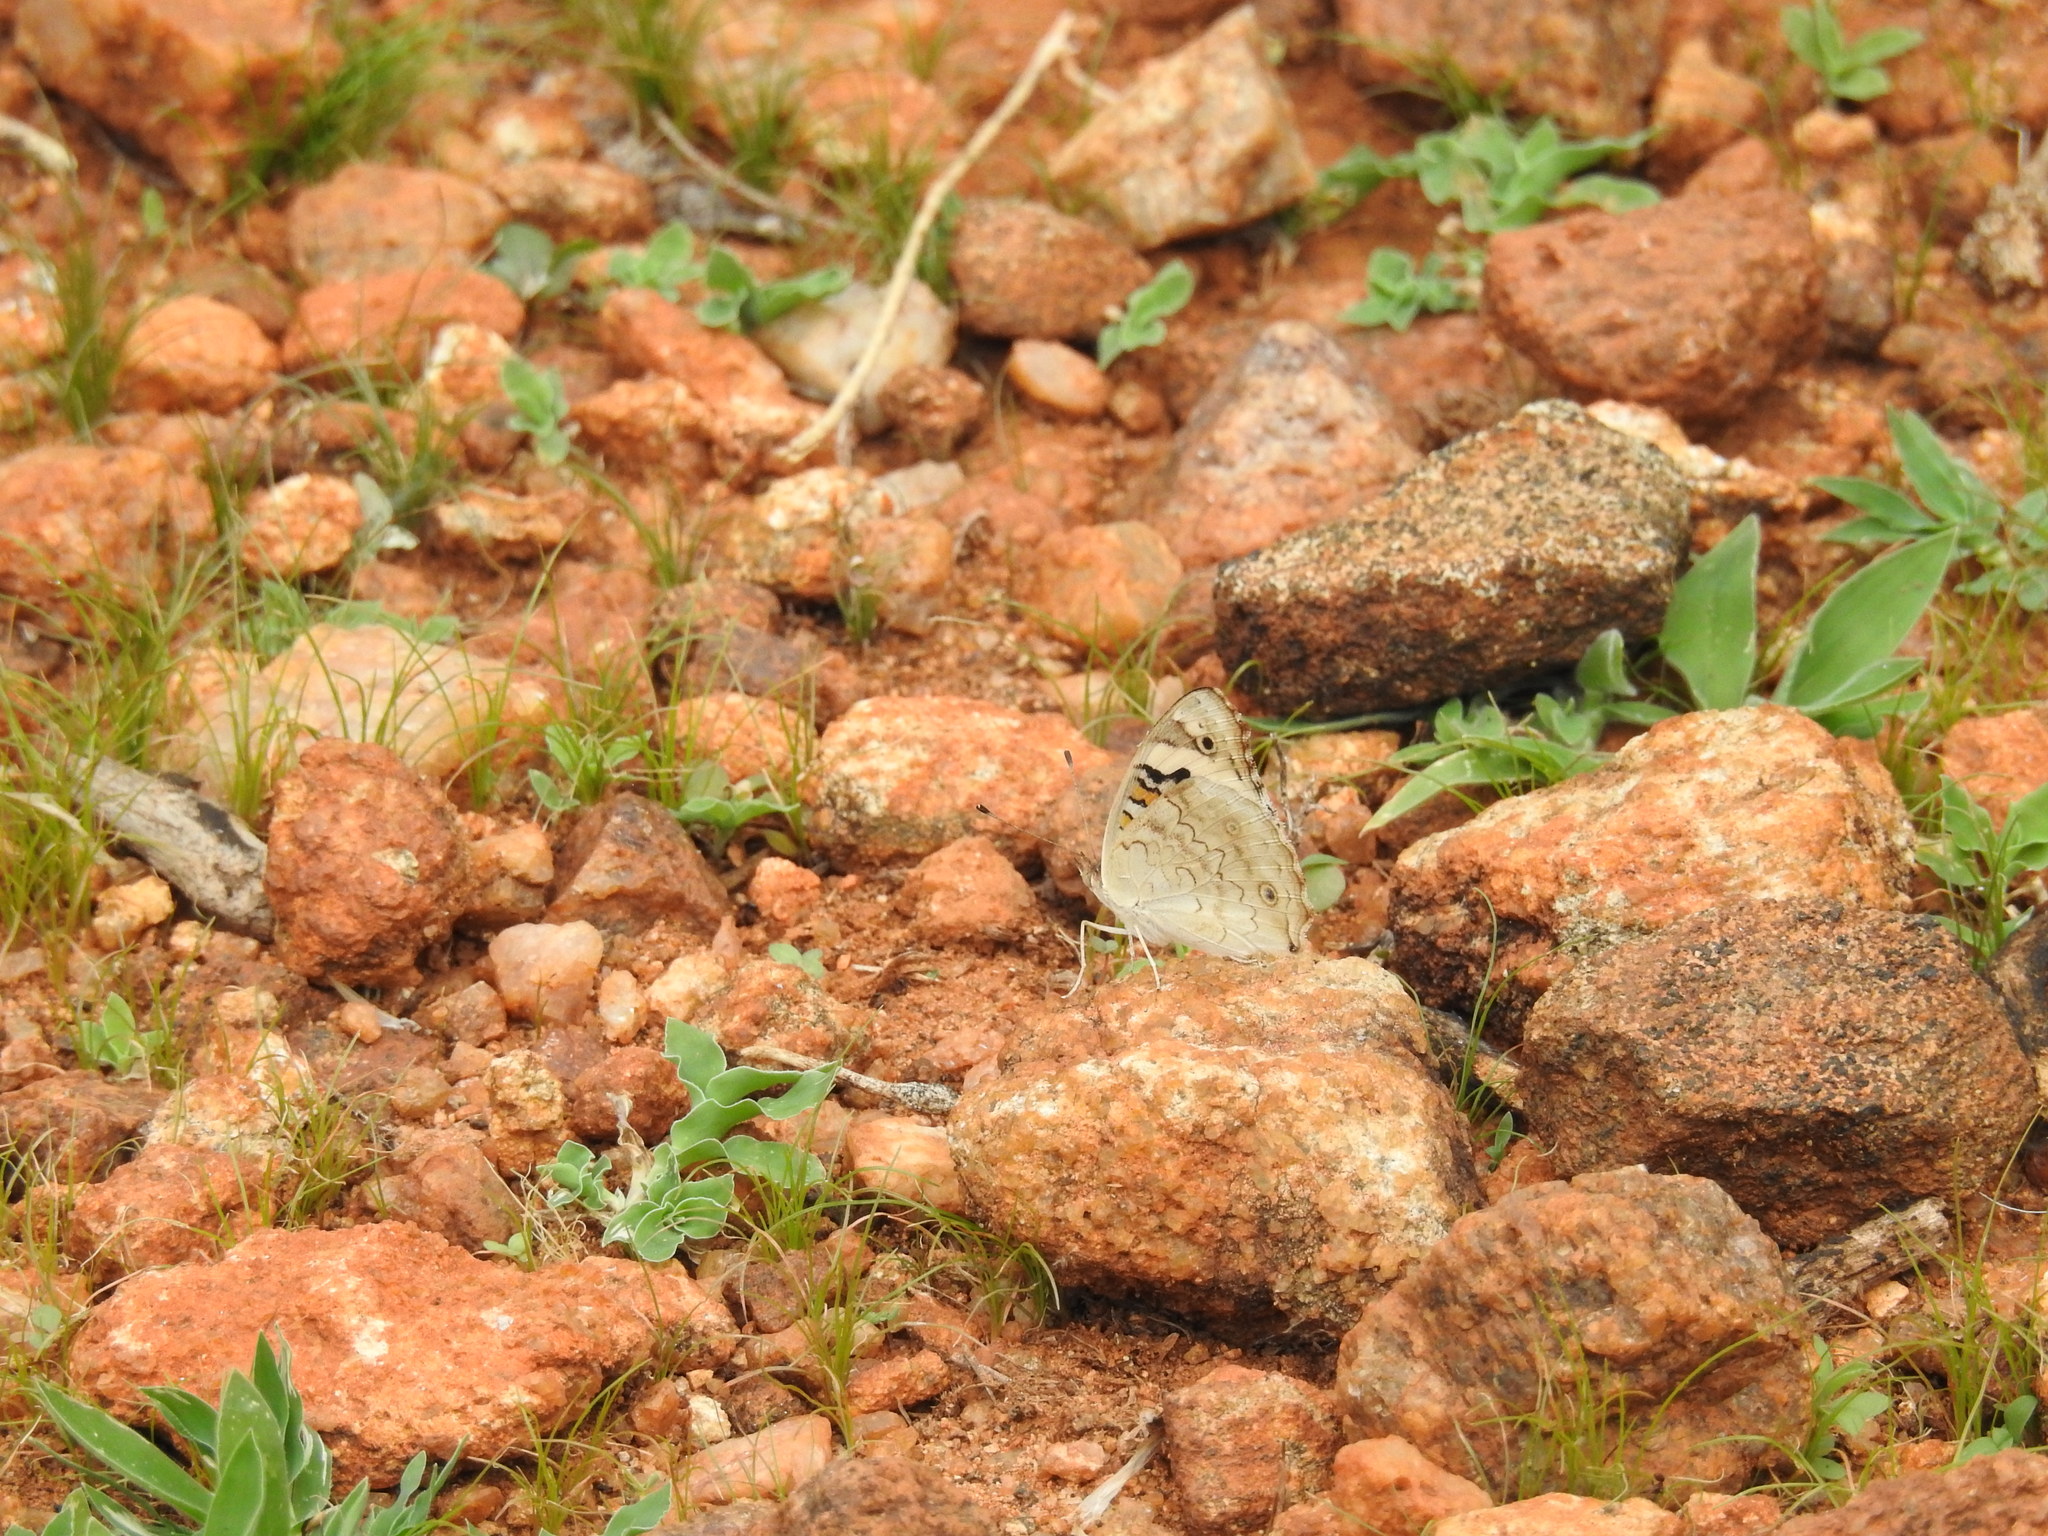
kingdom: Animalia
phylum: Arthropoda
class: Insecta
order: Lepidoptera
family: Nymphalidae
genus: Junonia
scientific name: Junonia orithya
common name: Blue pansy
